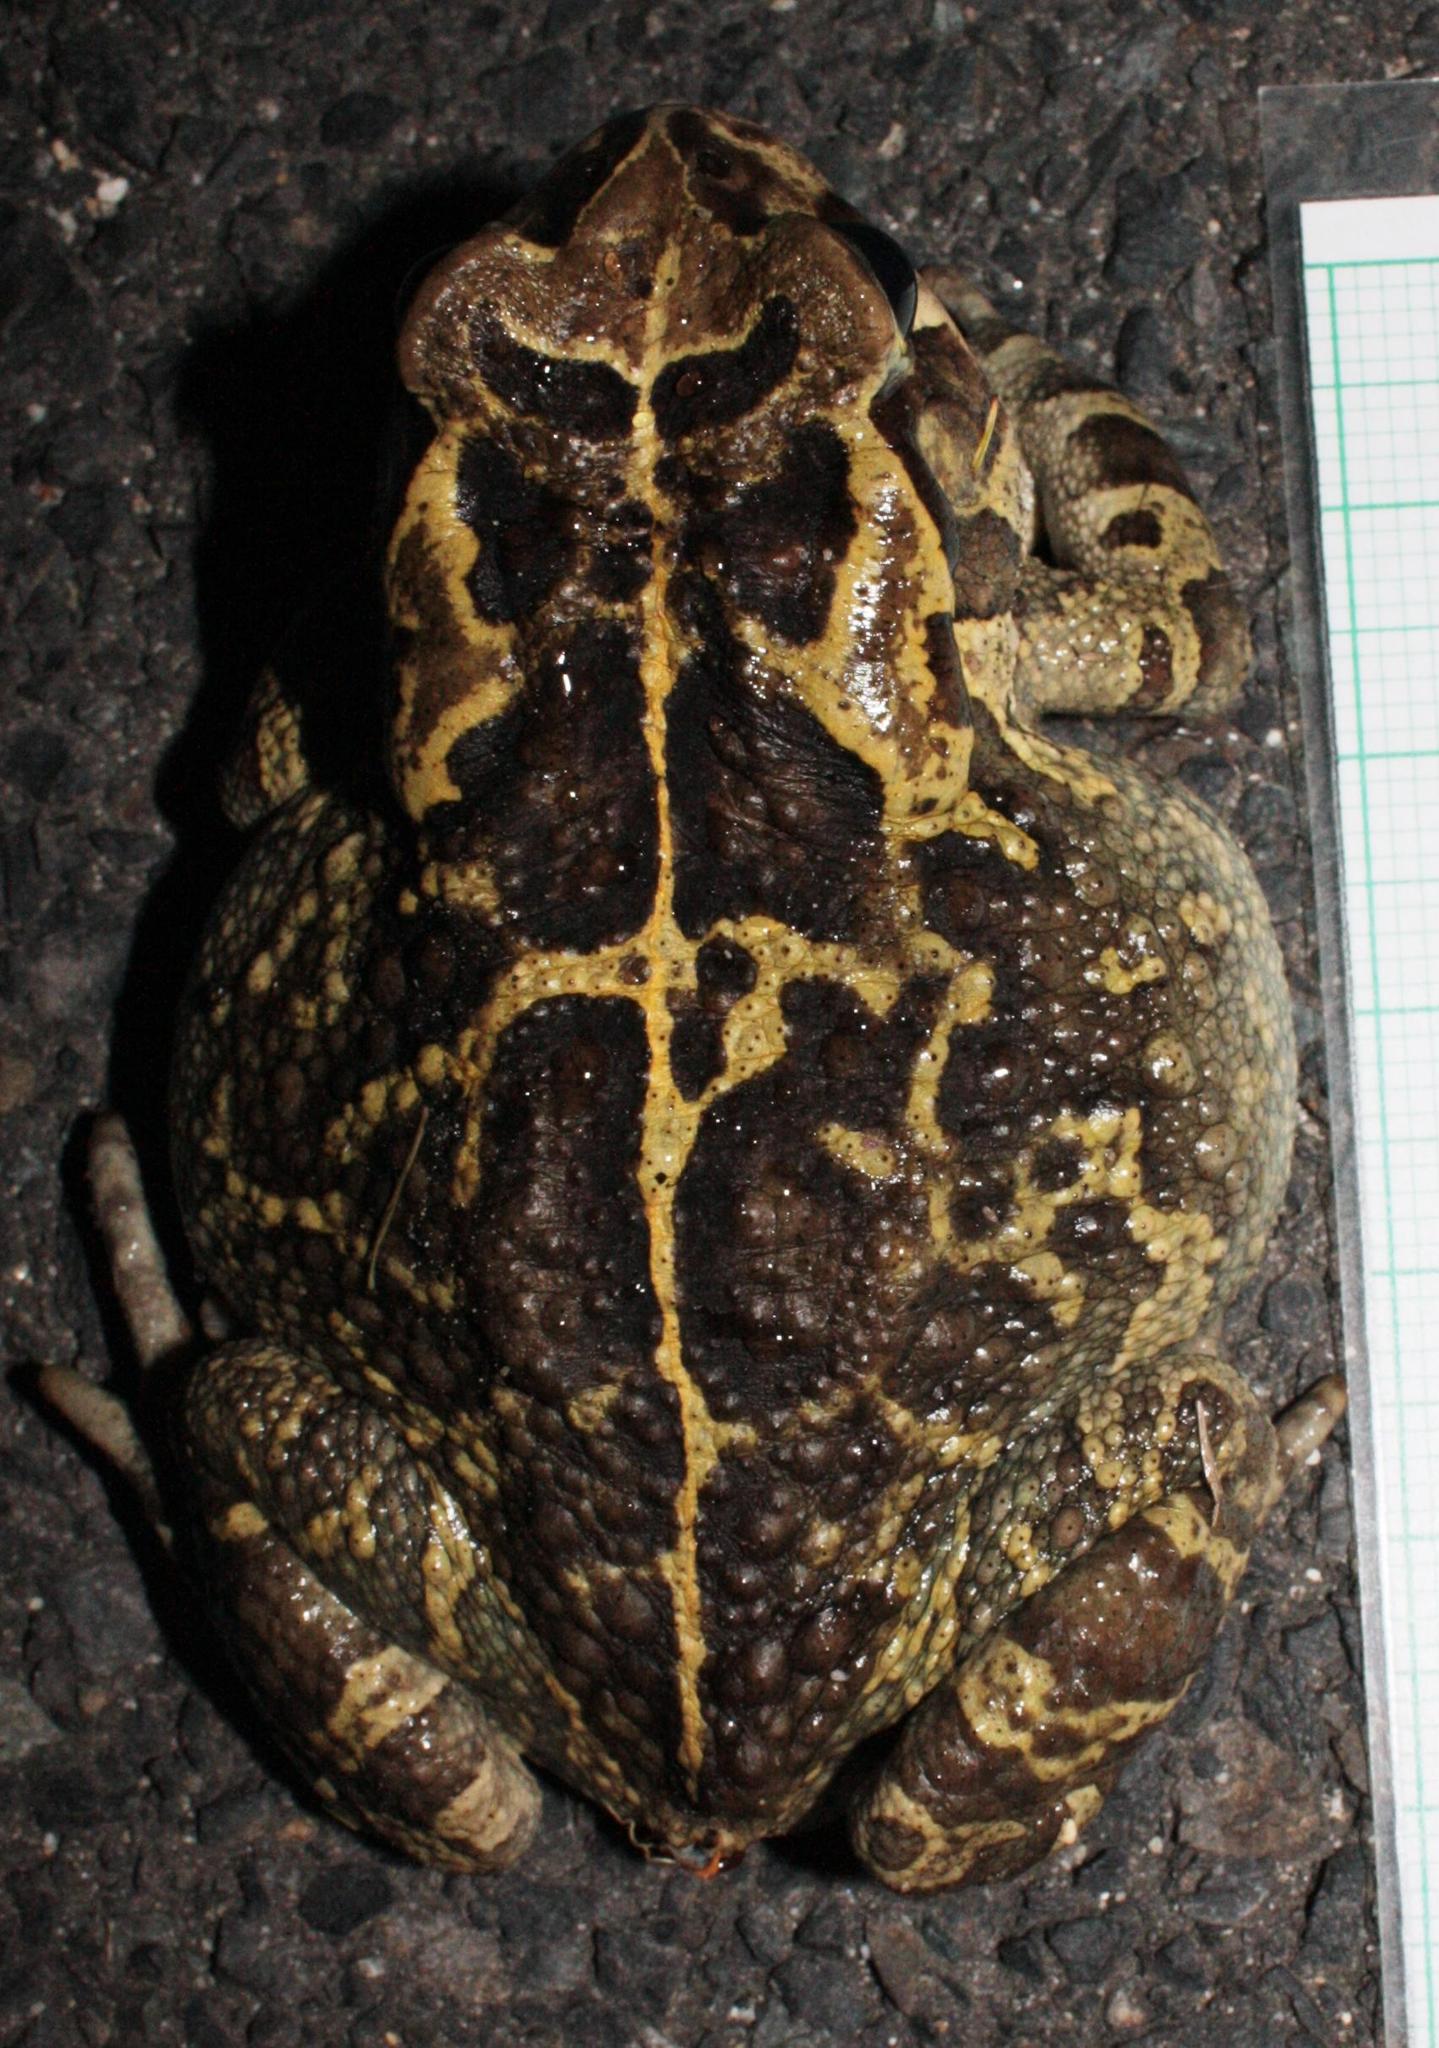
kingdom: Animalia
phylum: Chordata
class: Amphibia
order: Anura
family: Bufonidae
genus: Sclerophrys
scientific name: Sclerophrys pantherina
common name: Panther toad
